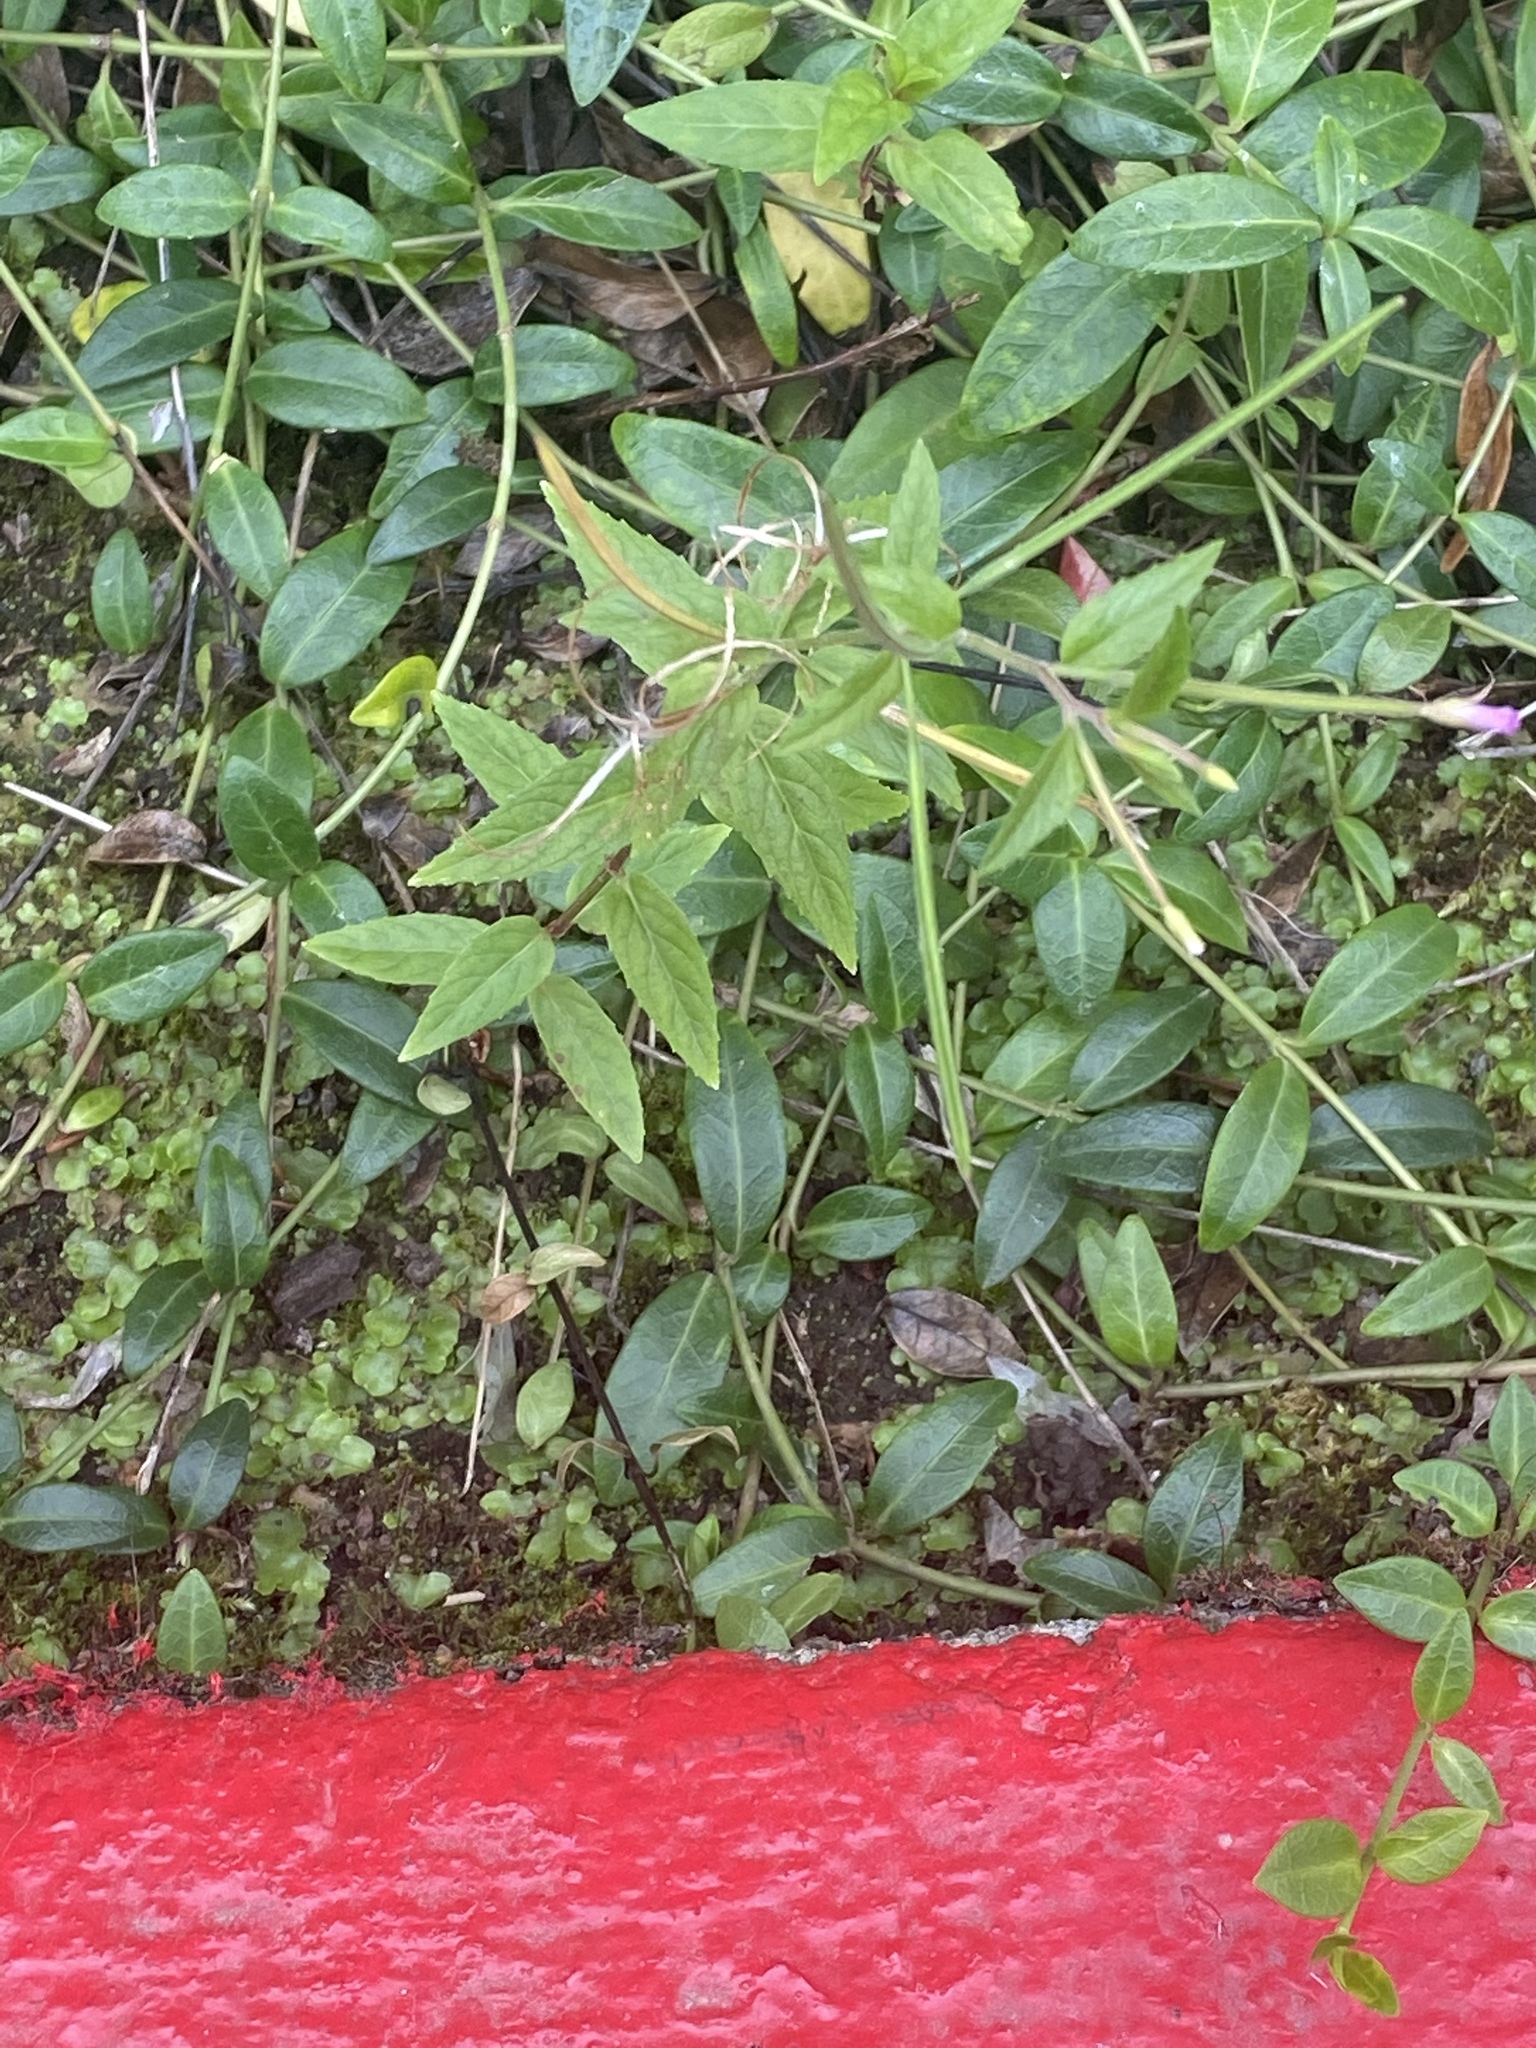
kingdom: Plantae
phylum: Tracheophyta
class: Magnoliopsida
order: Myrtales
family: Onagraceae
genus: Epilobium
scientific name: Epilobium ciliatum
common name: American willowherb
